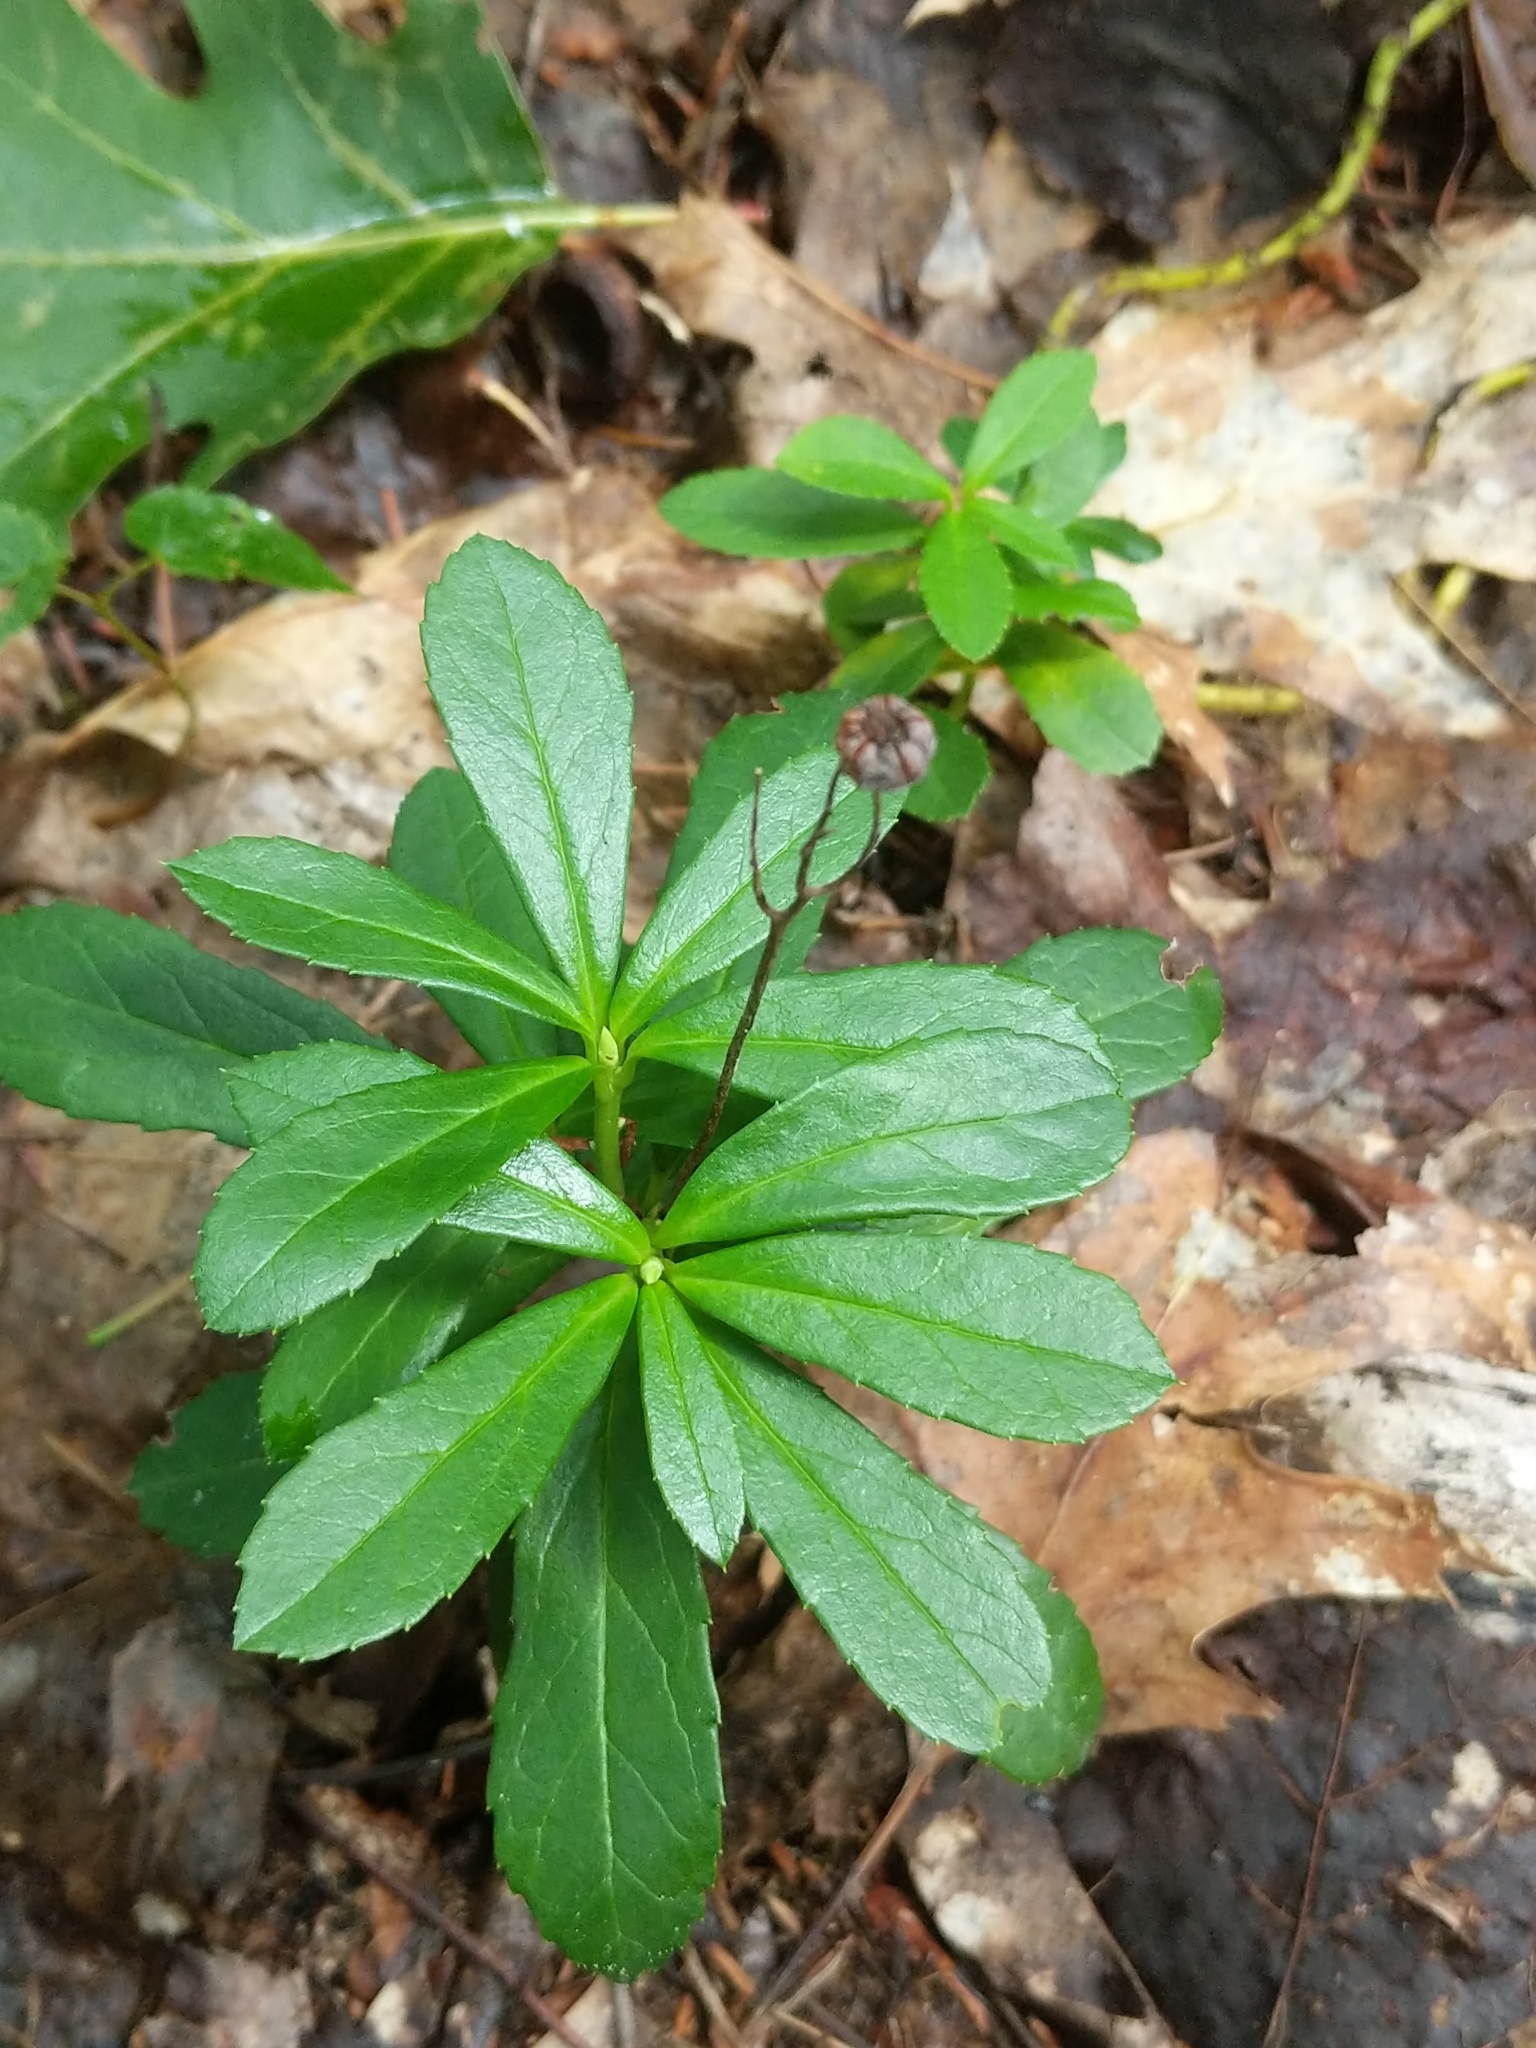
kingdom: Plantae
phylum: Tracheophyta
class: Magnoliopsida
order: Ericales
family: Ericaceae
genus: Chimaphila
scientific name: Chimaphila umbellata
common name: Pipsissewa
